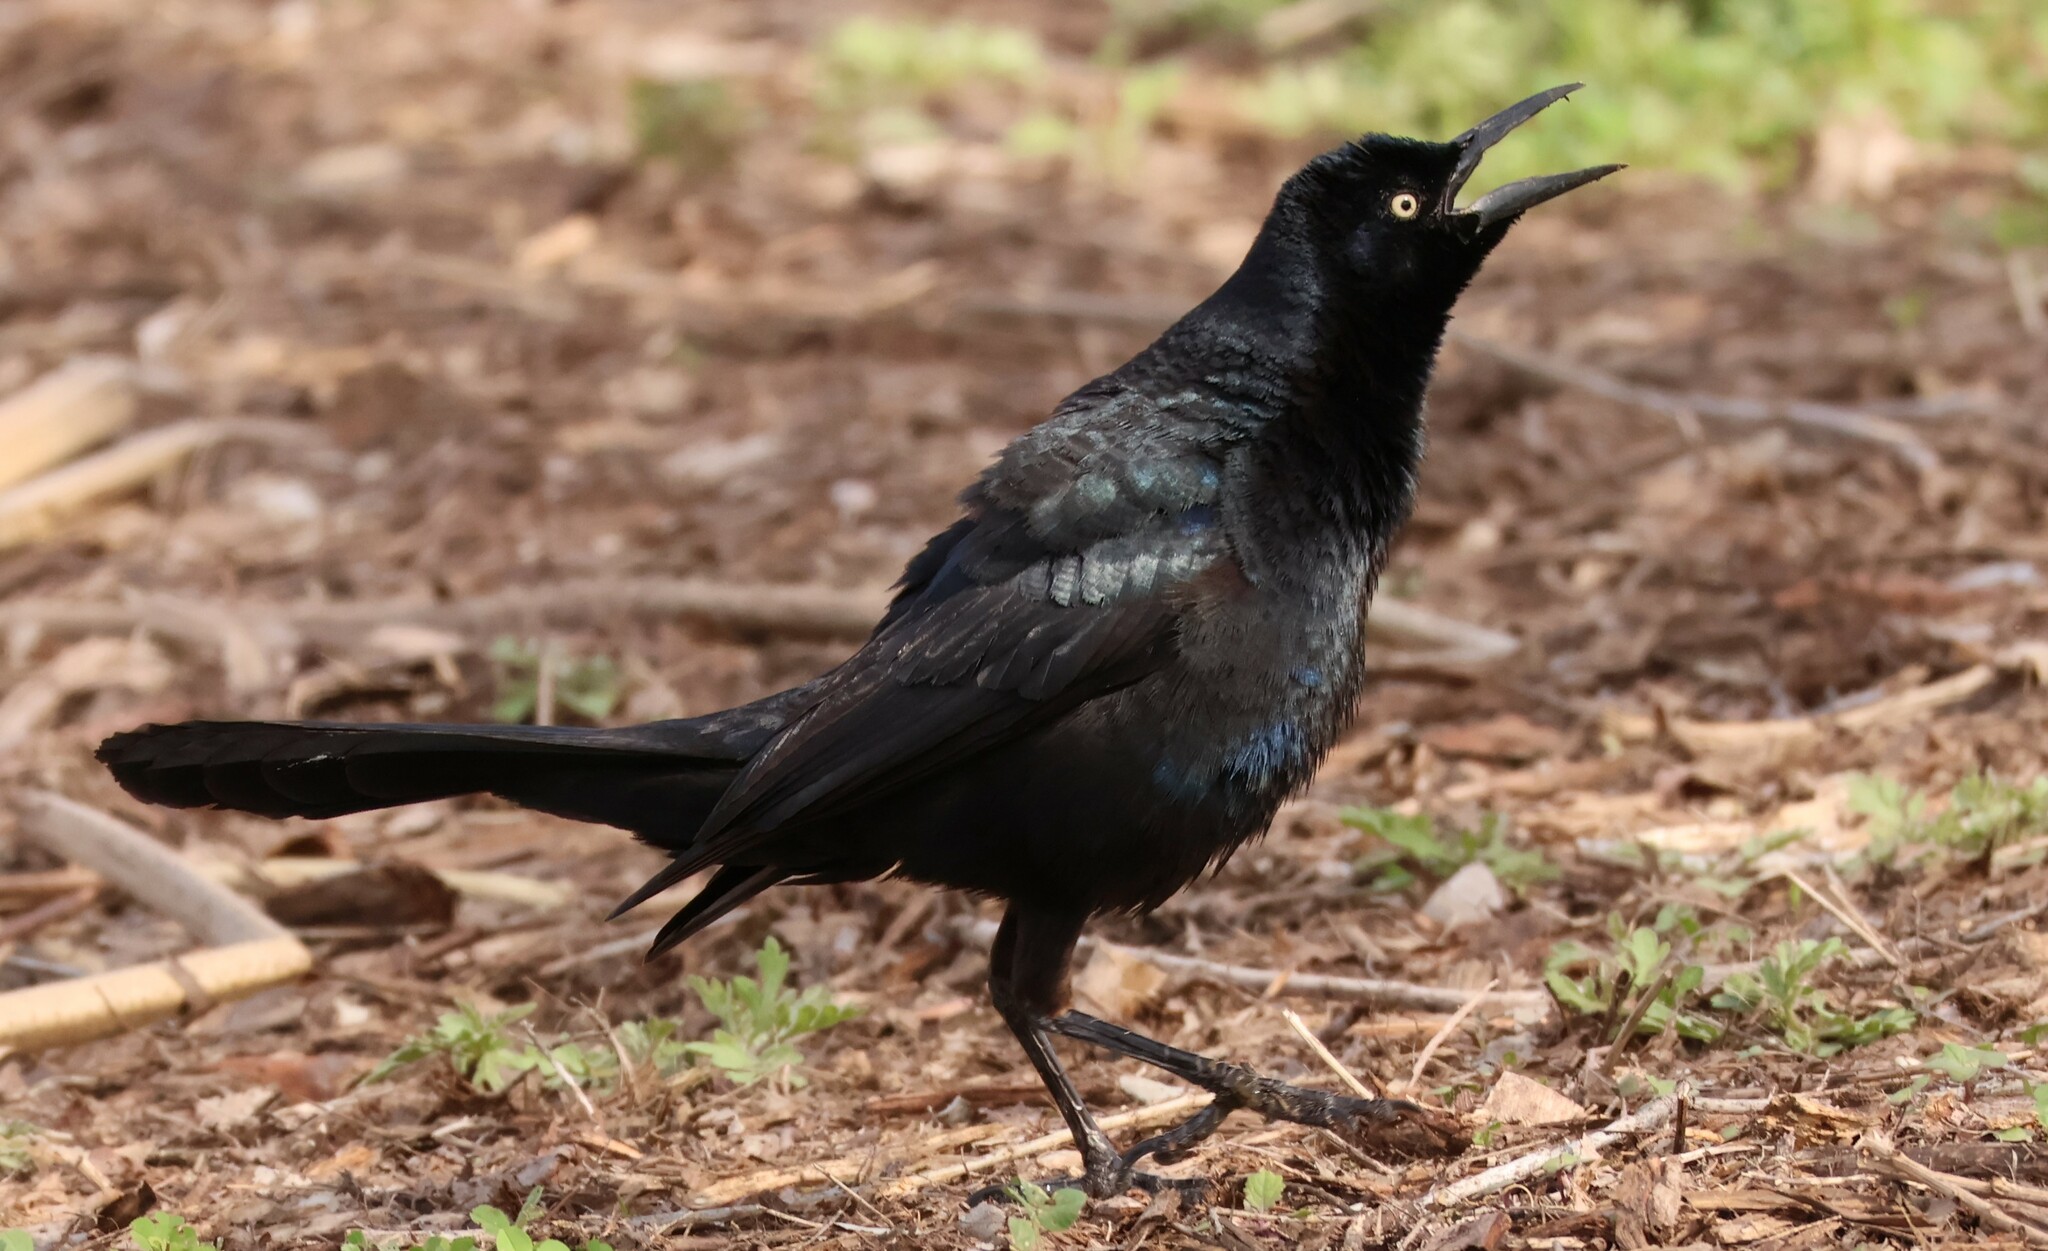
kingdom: Animalia
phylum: Chordata
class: Aves
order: Passeriformes
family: Icteridae
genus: Quiscalus
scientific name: Quiscalus mexicanus
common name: Great-tailed grackle
